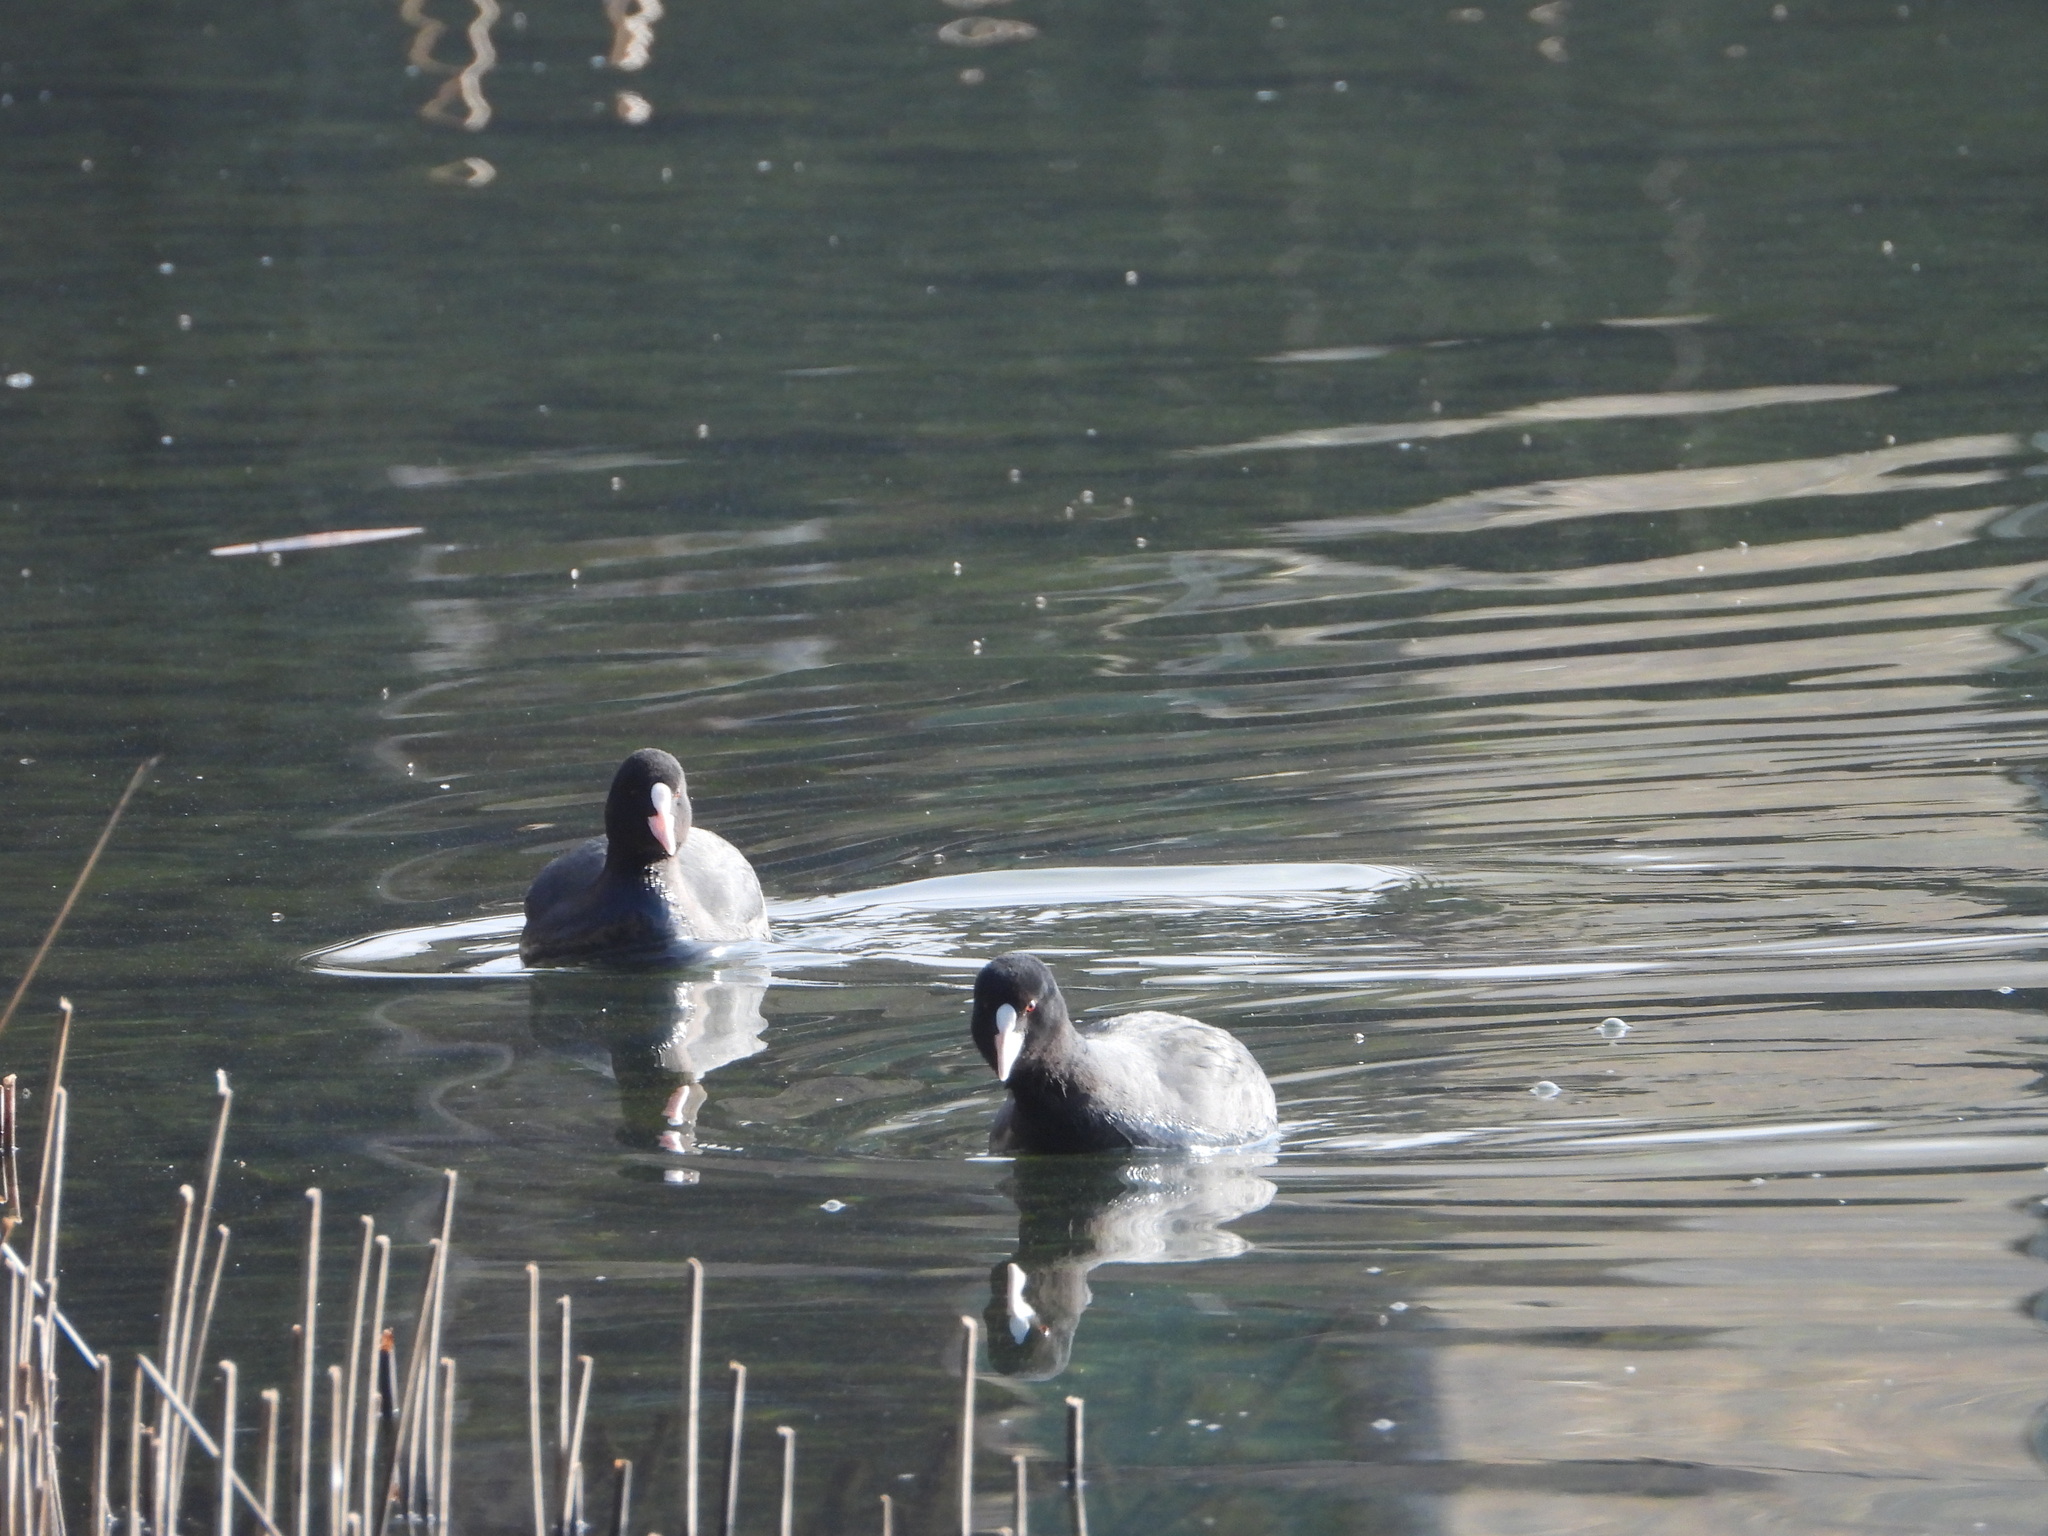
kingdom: Animalia
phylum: Chordata
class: Aves
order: Gruiformes
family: Rallidae
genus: Fulica
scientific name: Fulica atra
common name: Eurasian coot
